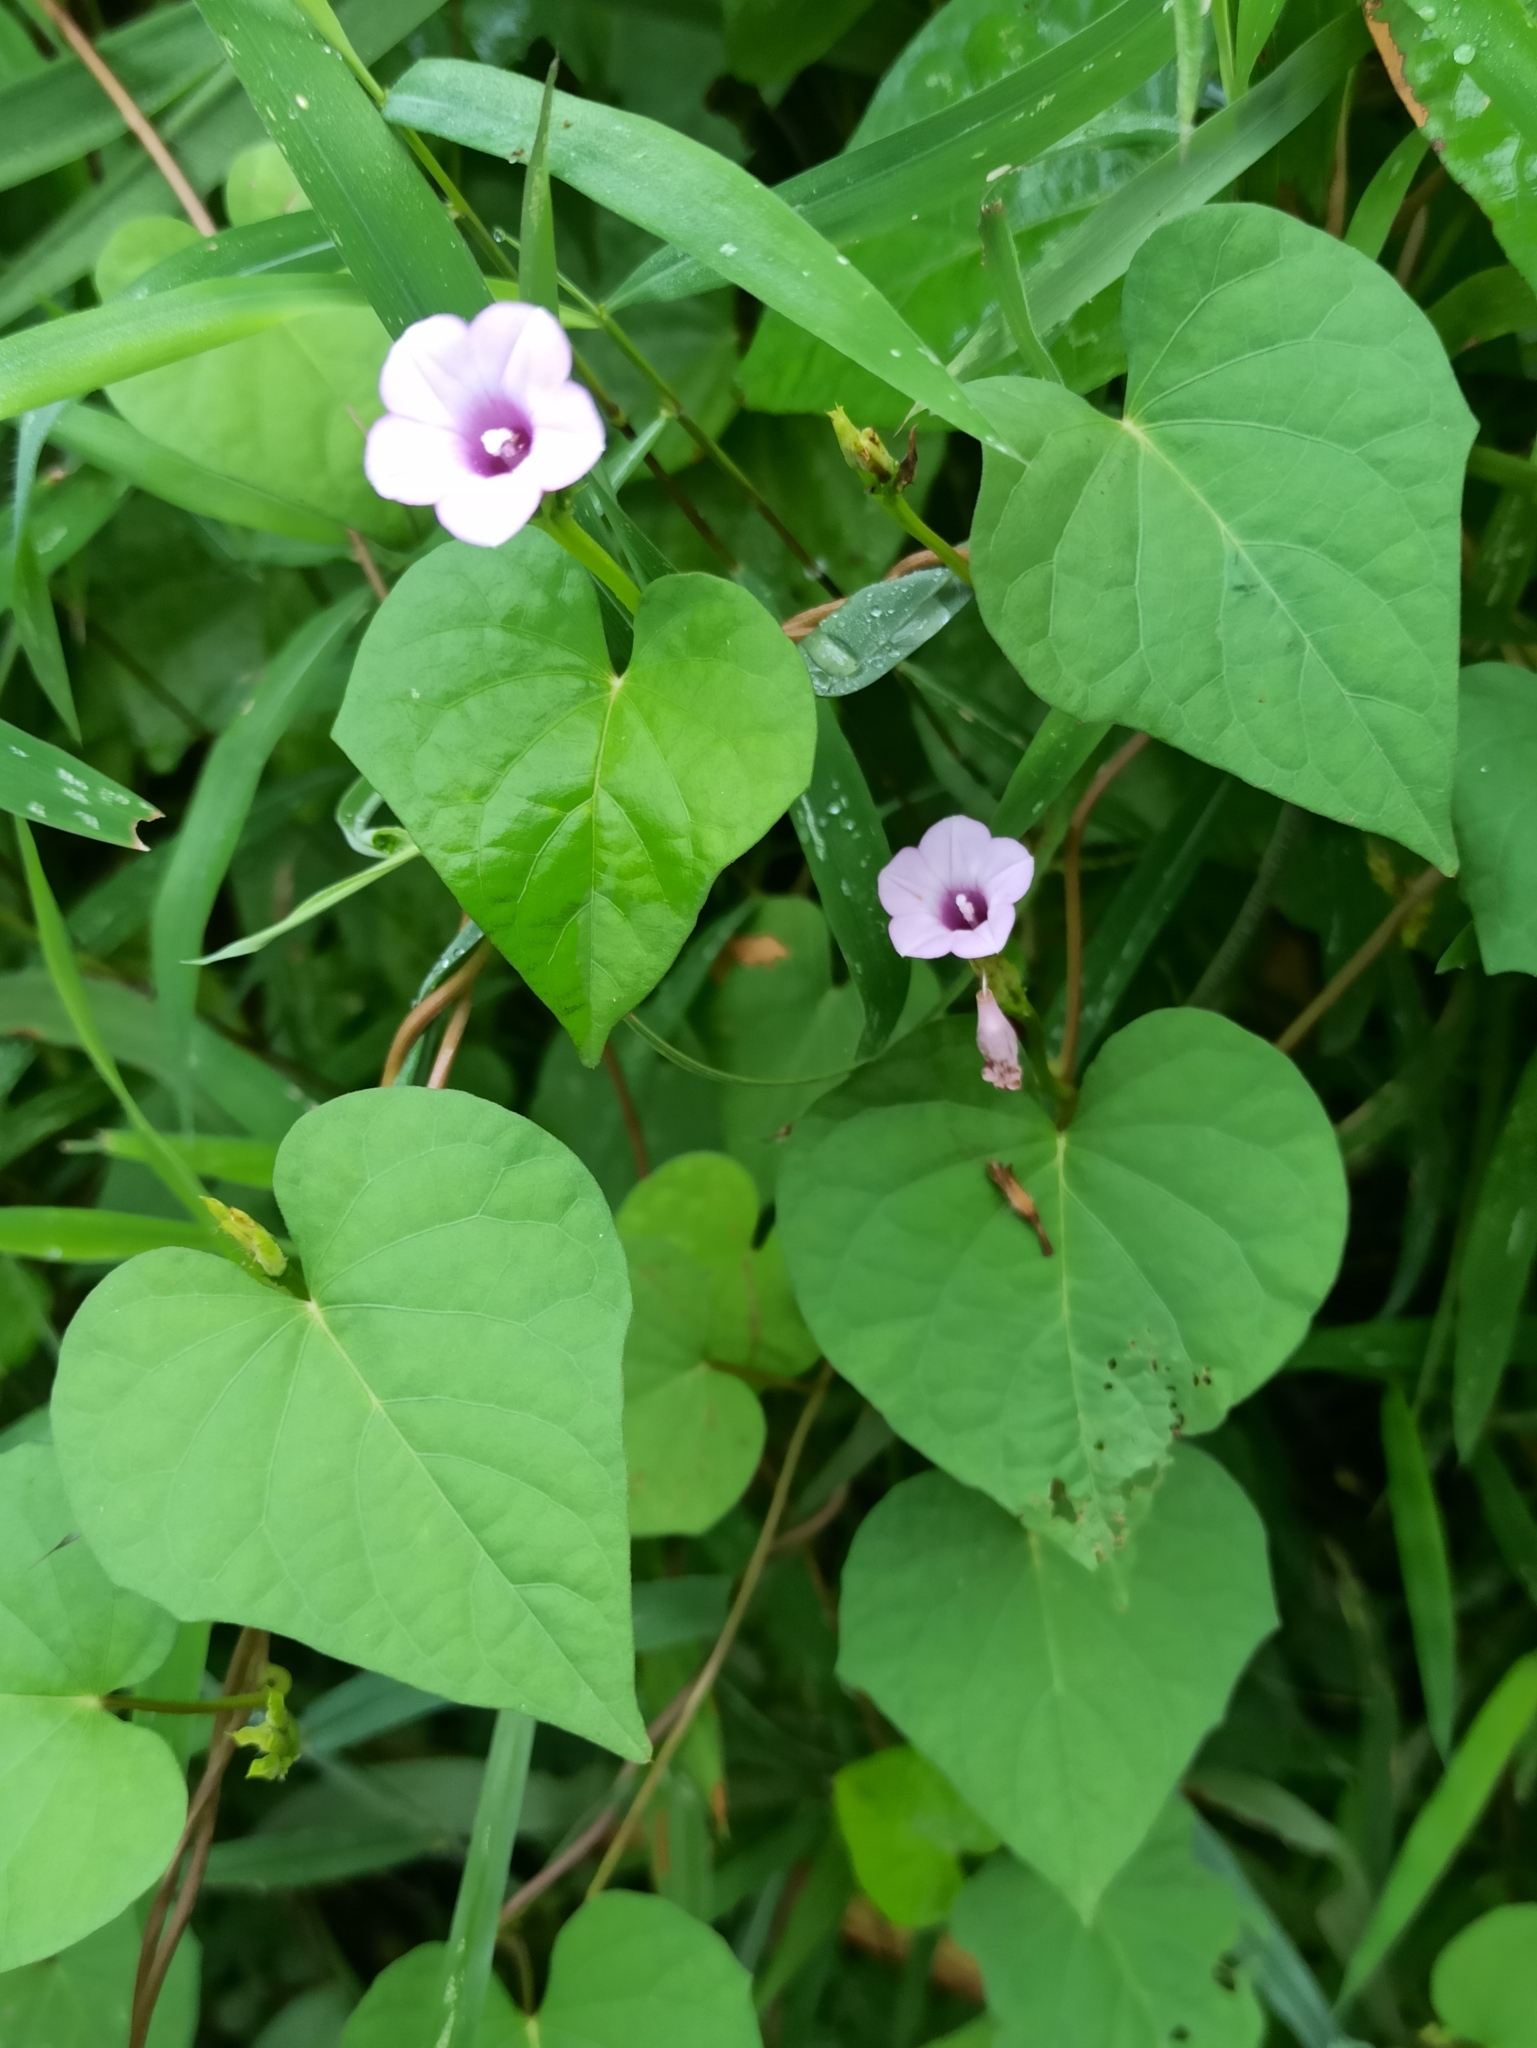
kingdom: Plantae
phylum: Tracheophyta
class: Magnoliopsida
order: Solanales
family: Convolvulaceae
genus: Ipomoea
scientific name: Ipomoea triloba
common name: Little-bell
